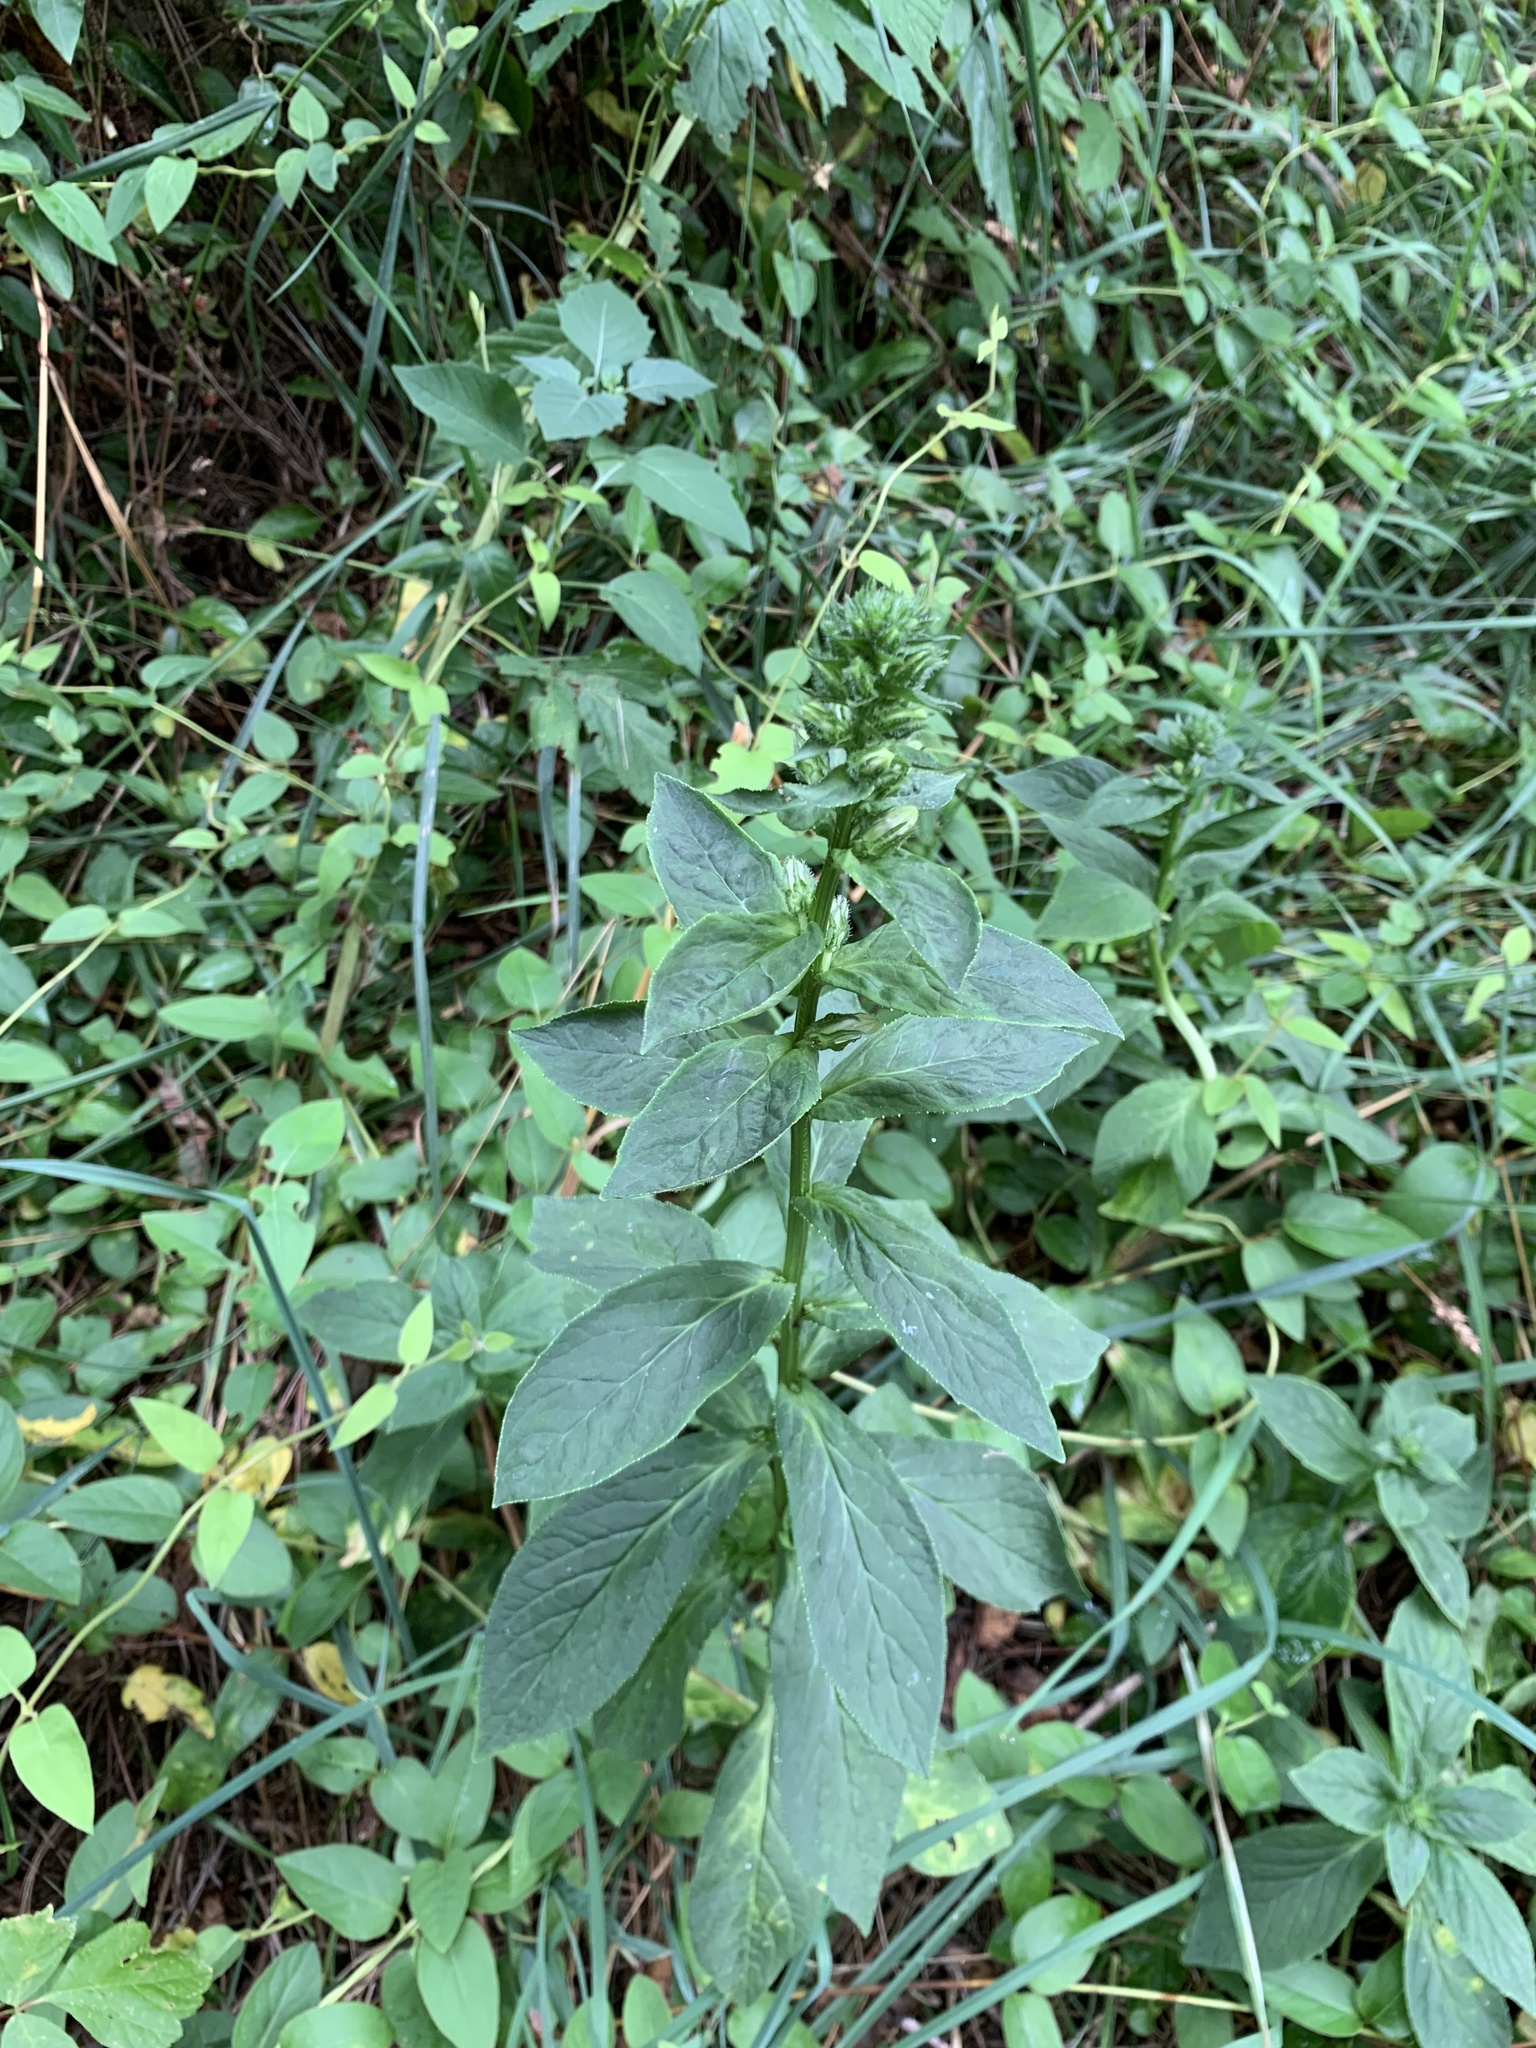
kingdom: Plantae
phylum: Tracheophyta
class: Magnoliopsida
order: Asterales
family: Campanulaceae
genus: Lobelia
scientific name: Lobelia siphilitica
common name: Great lobelia
